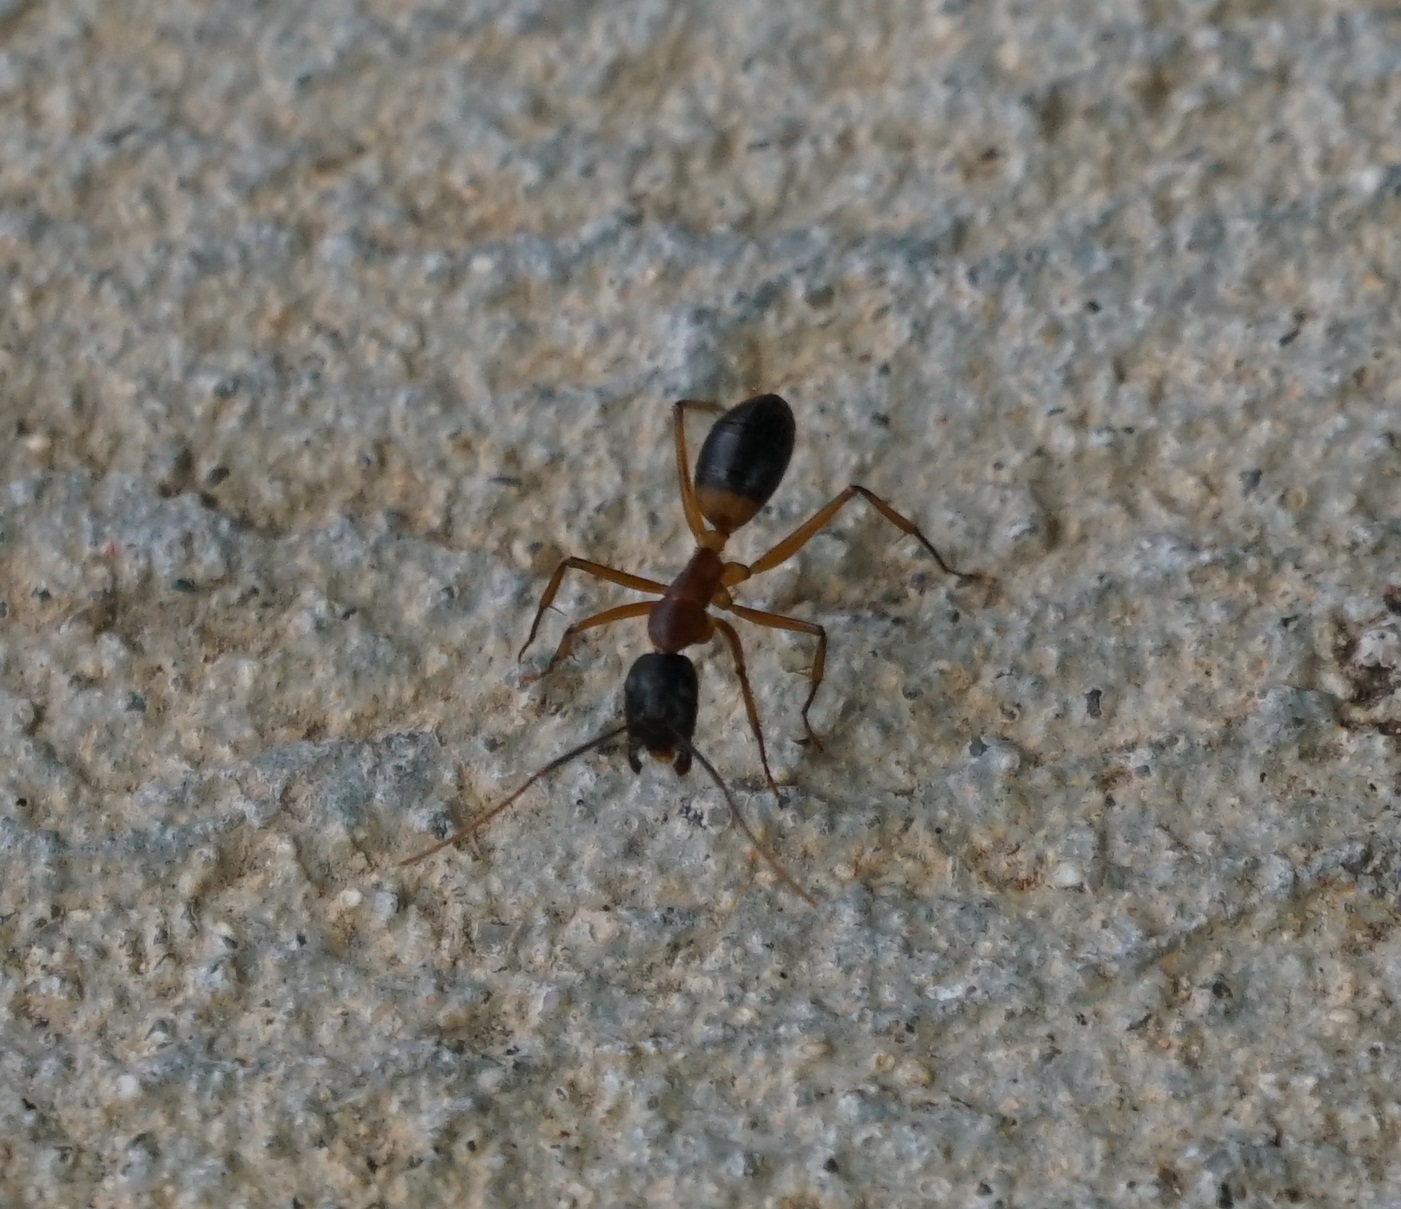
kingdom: Animalia
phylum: Arthropoda
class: Insecta
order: Hymenoptera
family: Formicidae
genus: Camponotus
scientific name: Camponotus consobrinus
